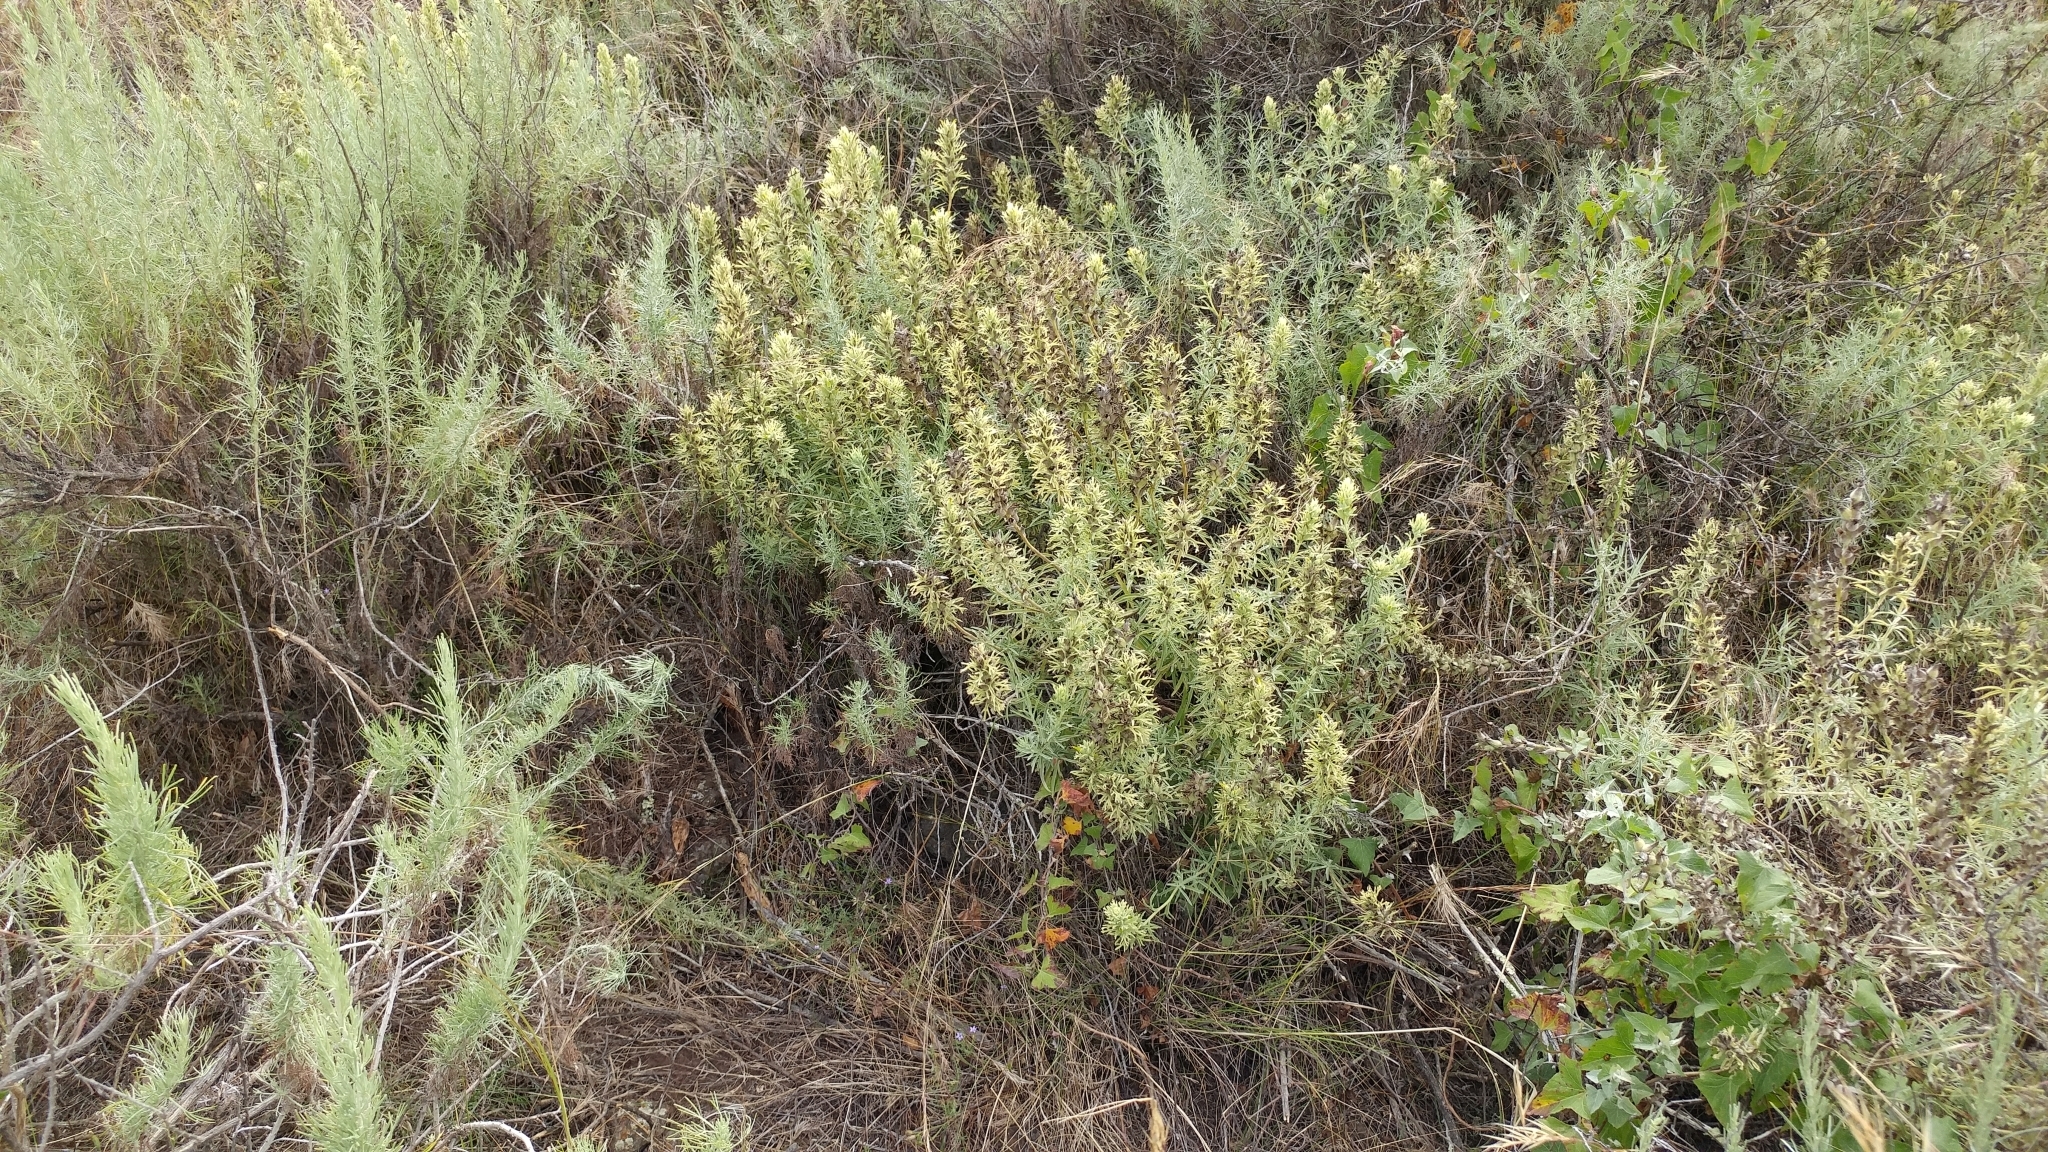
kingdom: Plantae
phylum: Tracheophyta
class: Magnoliopsida
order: Lamiales
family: Orobanchaceae
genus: Castilleja
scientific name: Castilleja grisea
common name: San clemente island indian paintbrush
